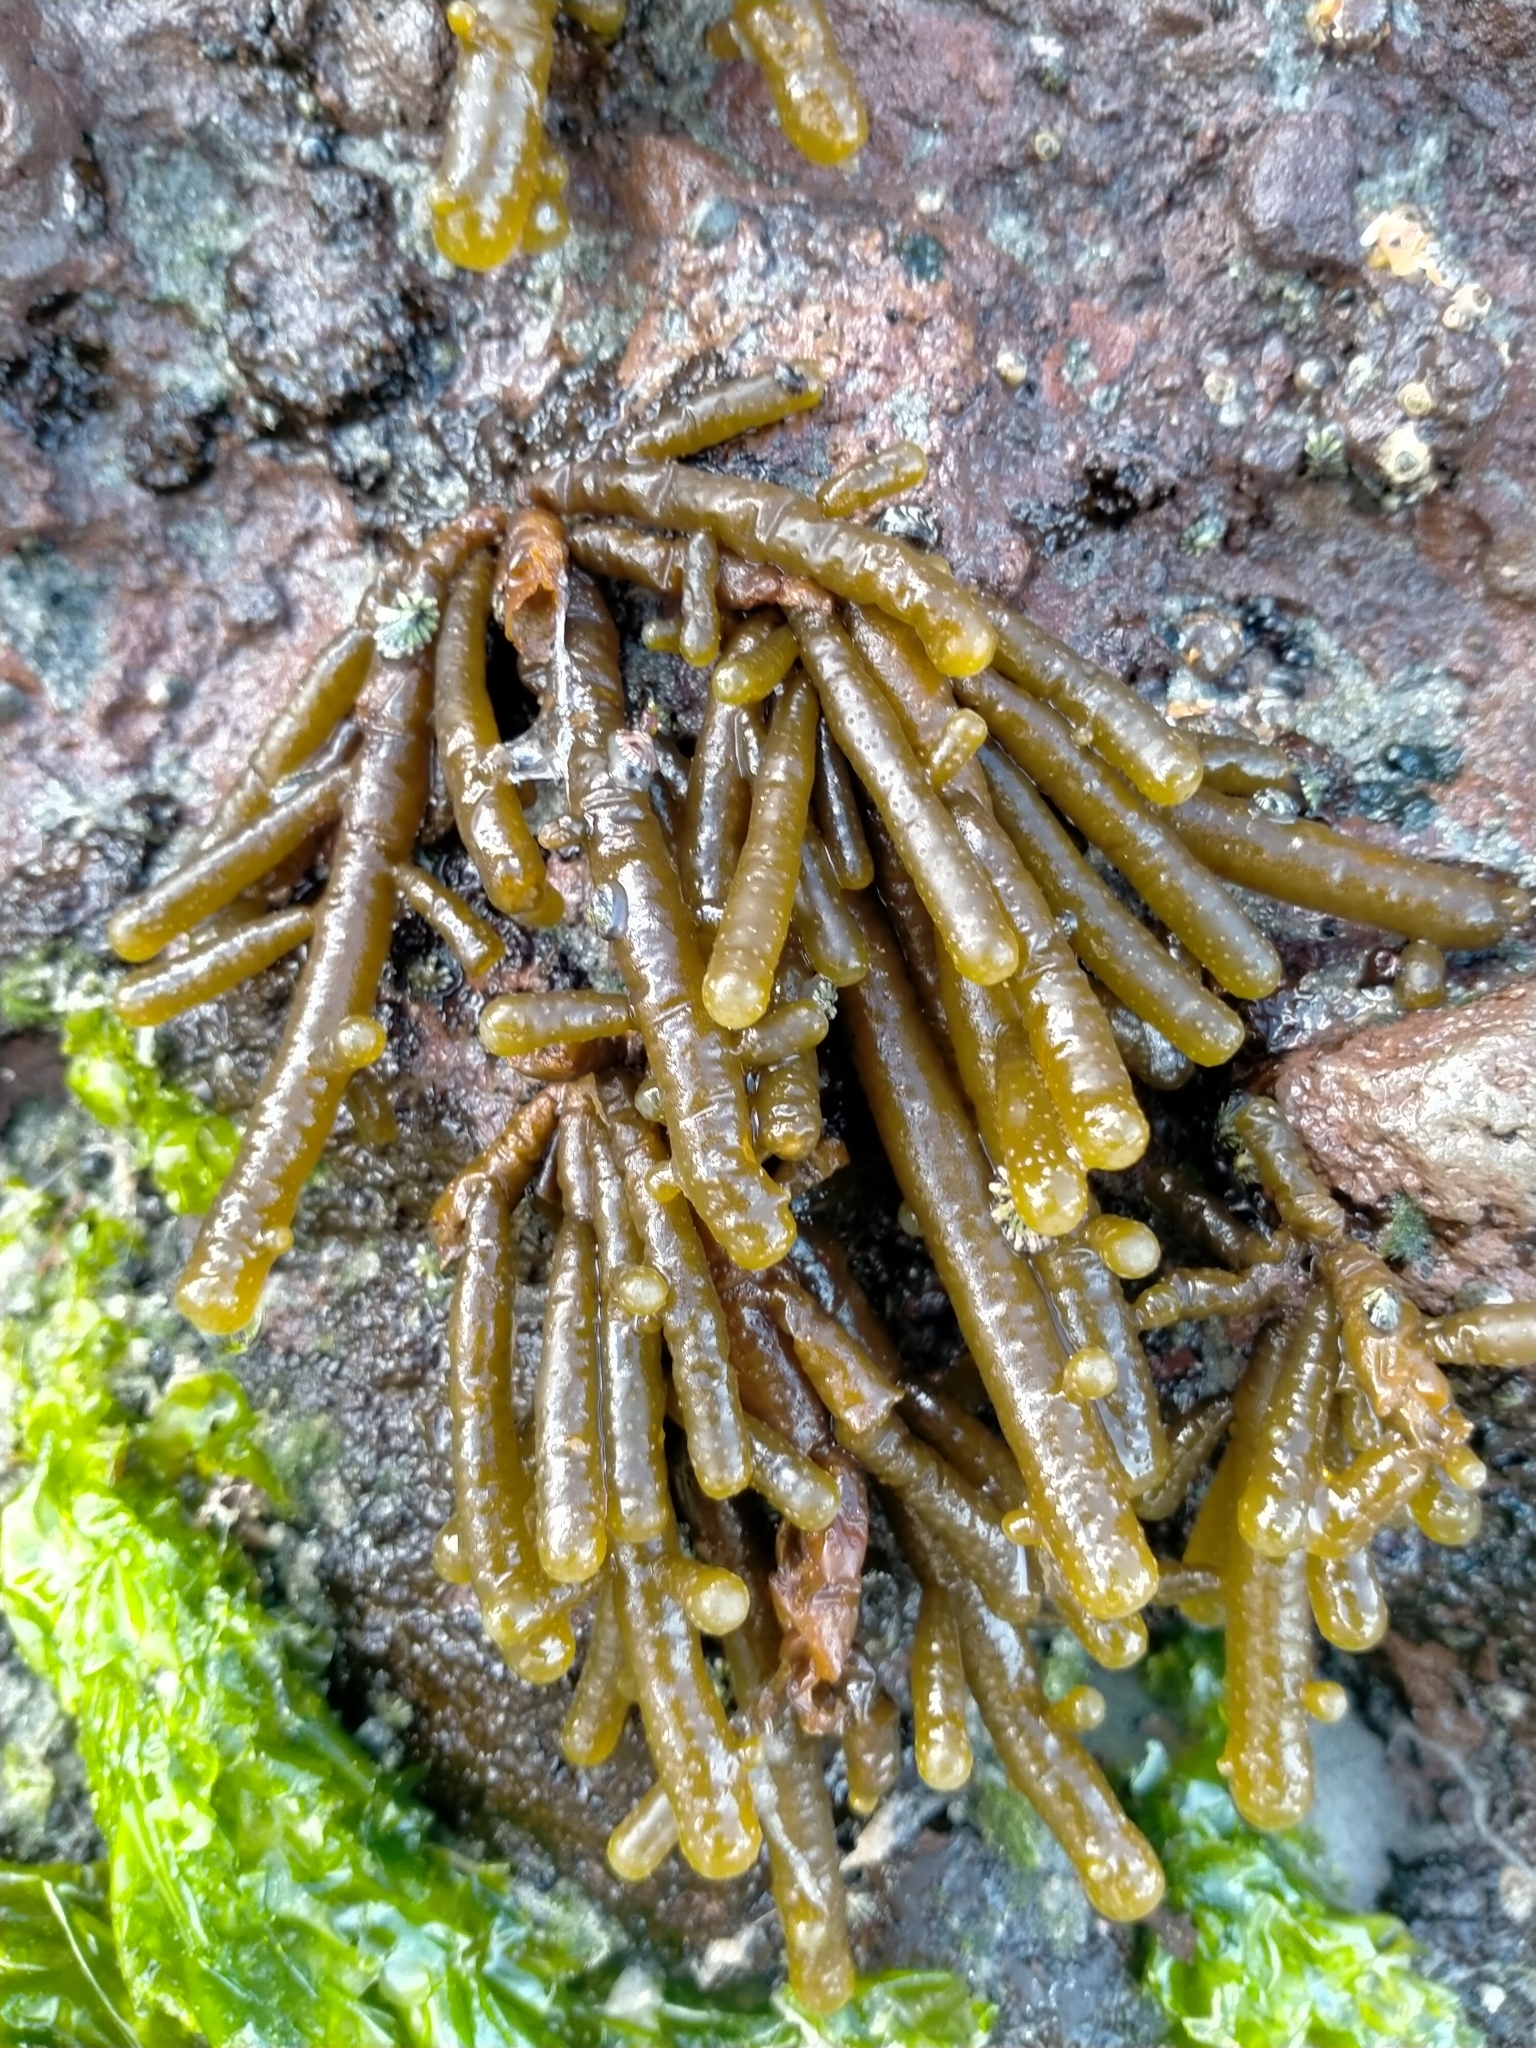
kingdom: Chromista
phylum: Ochrophyta
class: Phaeophyceae
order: Scytothamnales
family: Splachnidiaceae
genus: Splachnidium
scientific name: Splachnidium rugosum
